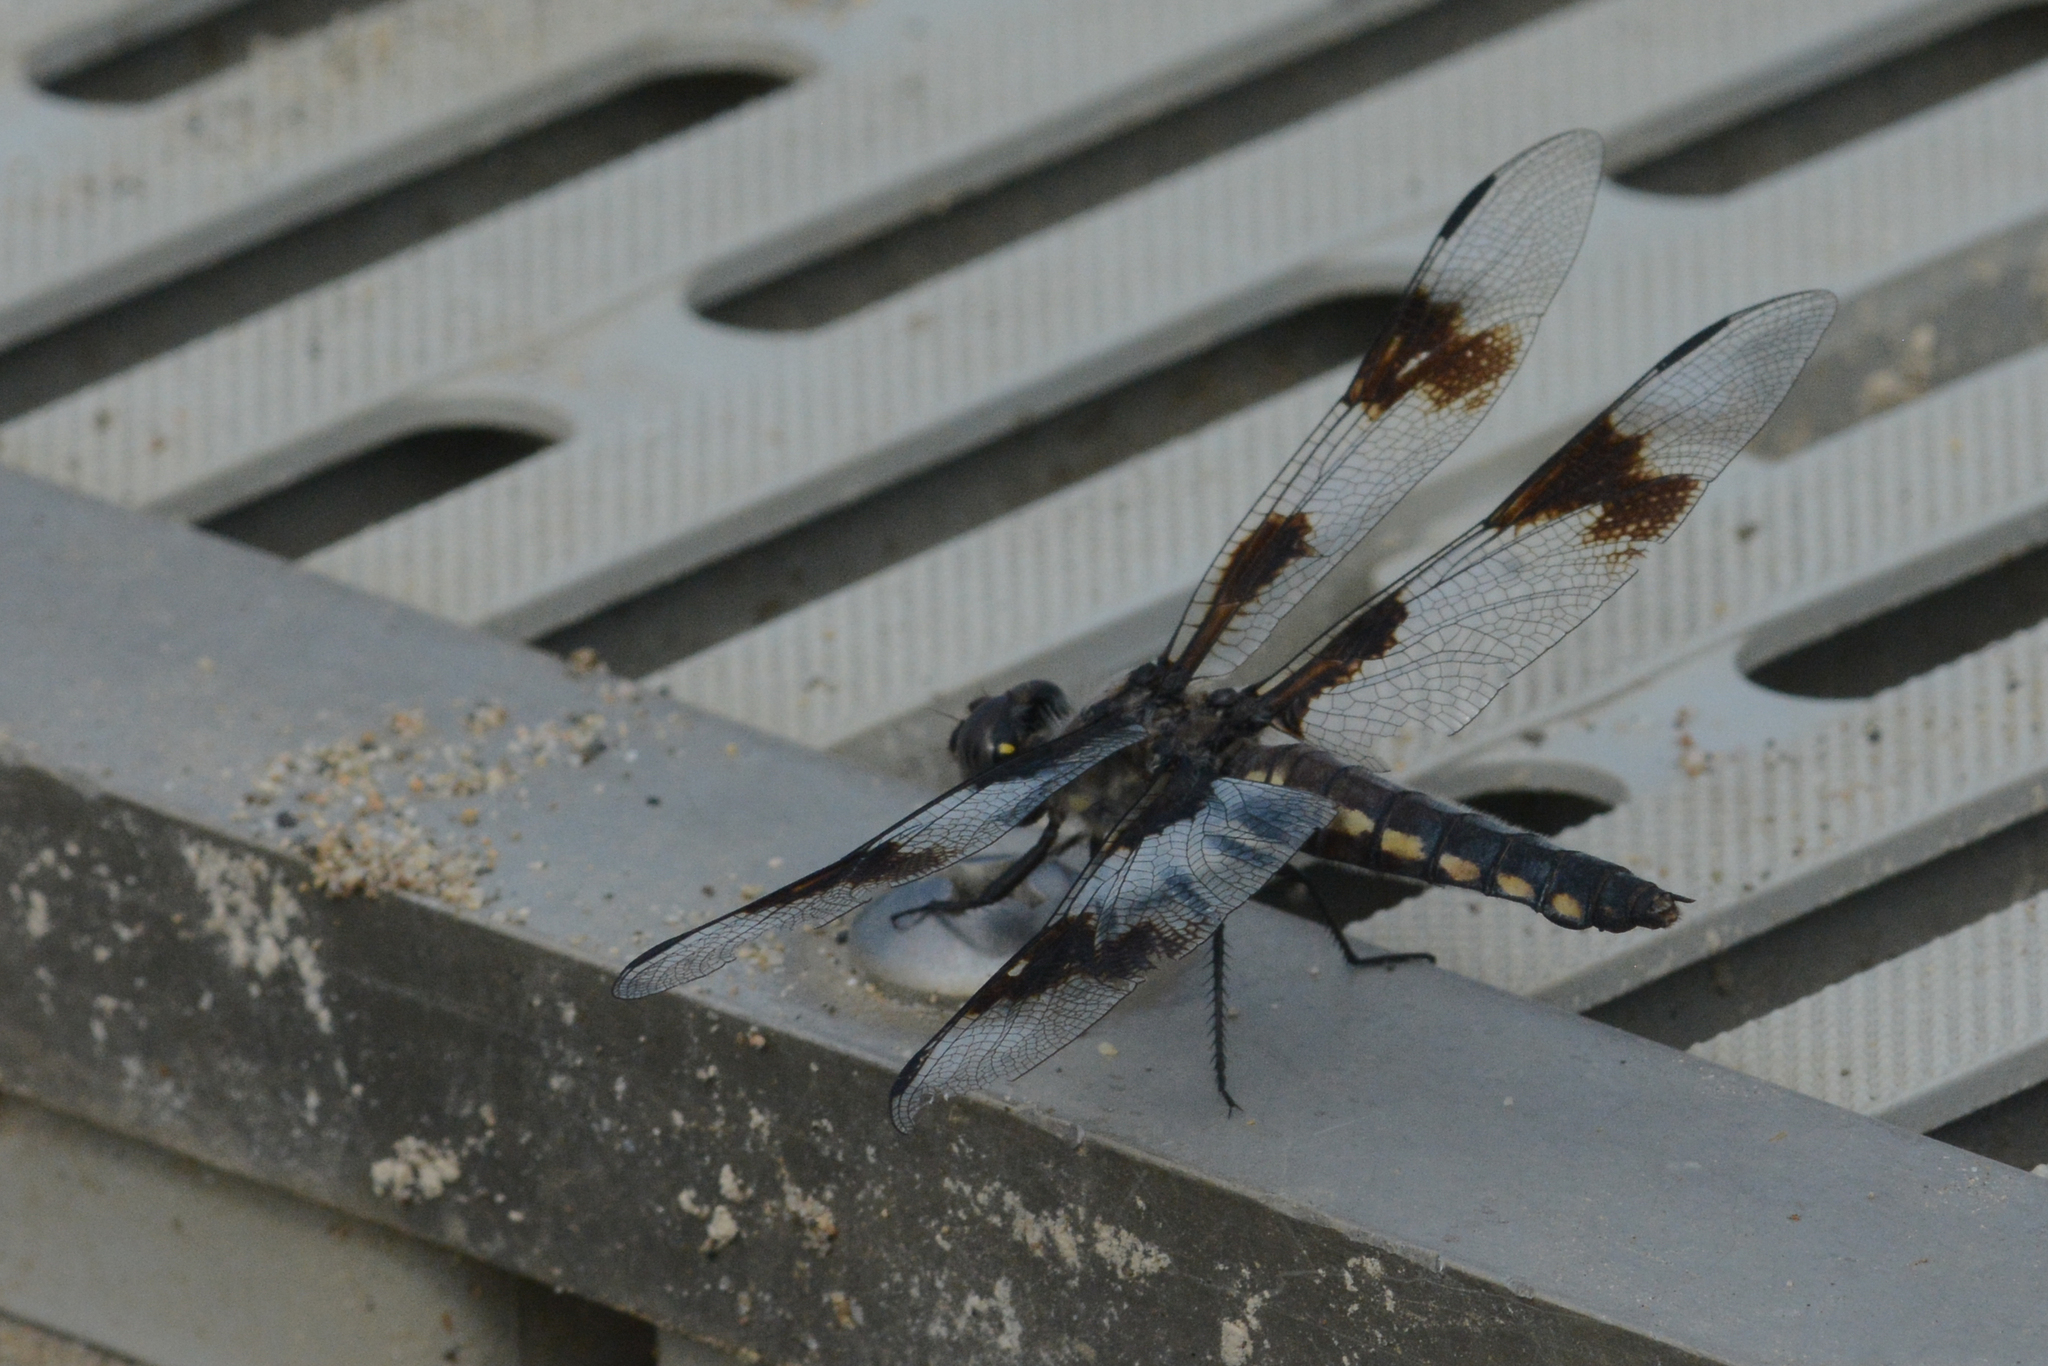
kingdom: Animalia
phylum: Arthropoda
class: Insecta
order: Odonata
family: Libellulidae
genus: Libellula
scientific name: Libellula forensis
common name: Eight-spotted skimmer
